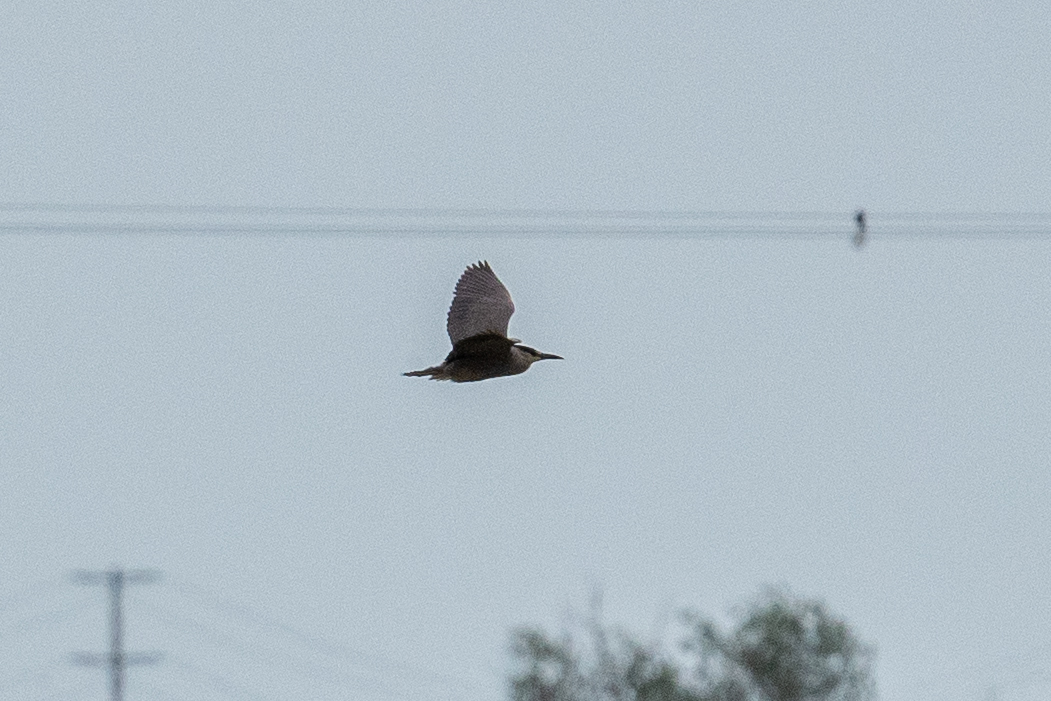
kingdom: Animalia
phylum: Chordata
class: Aves
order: Pelecaniformes
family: Ardeidae
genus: Nycticorax
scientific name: Nycticorax nycticorax
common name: Black-crowned night heron
